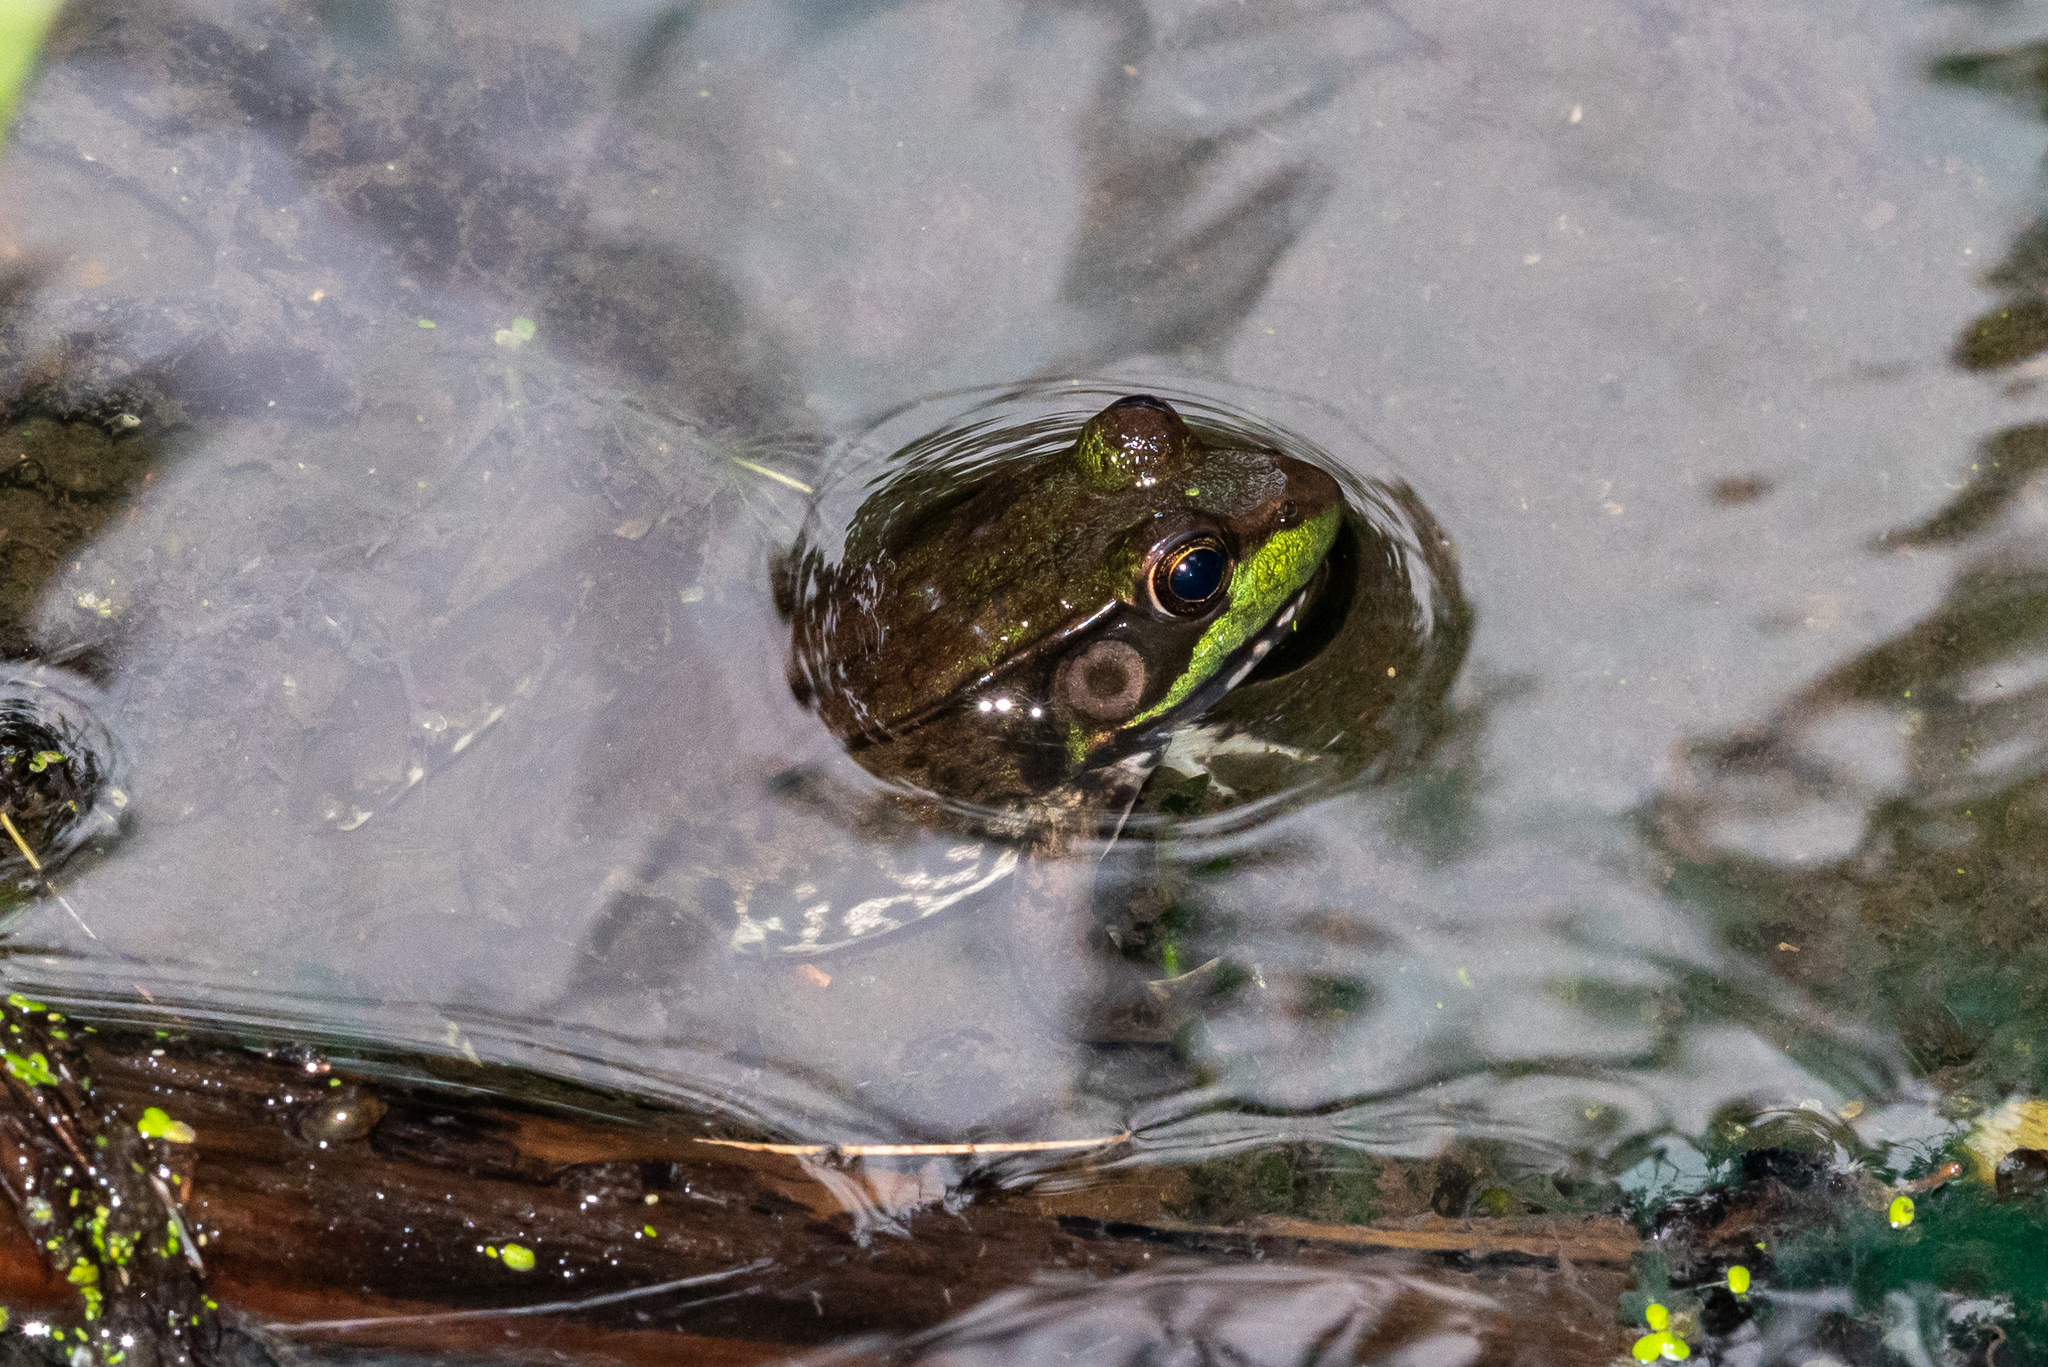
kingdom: Animalia
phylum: Chordata
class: Amphibia
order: Anura
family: Ranidae
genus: Lithobates
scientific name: Lithobates clamitans
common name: Green frog
